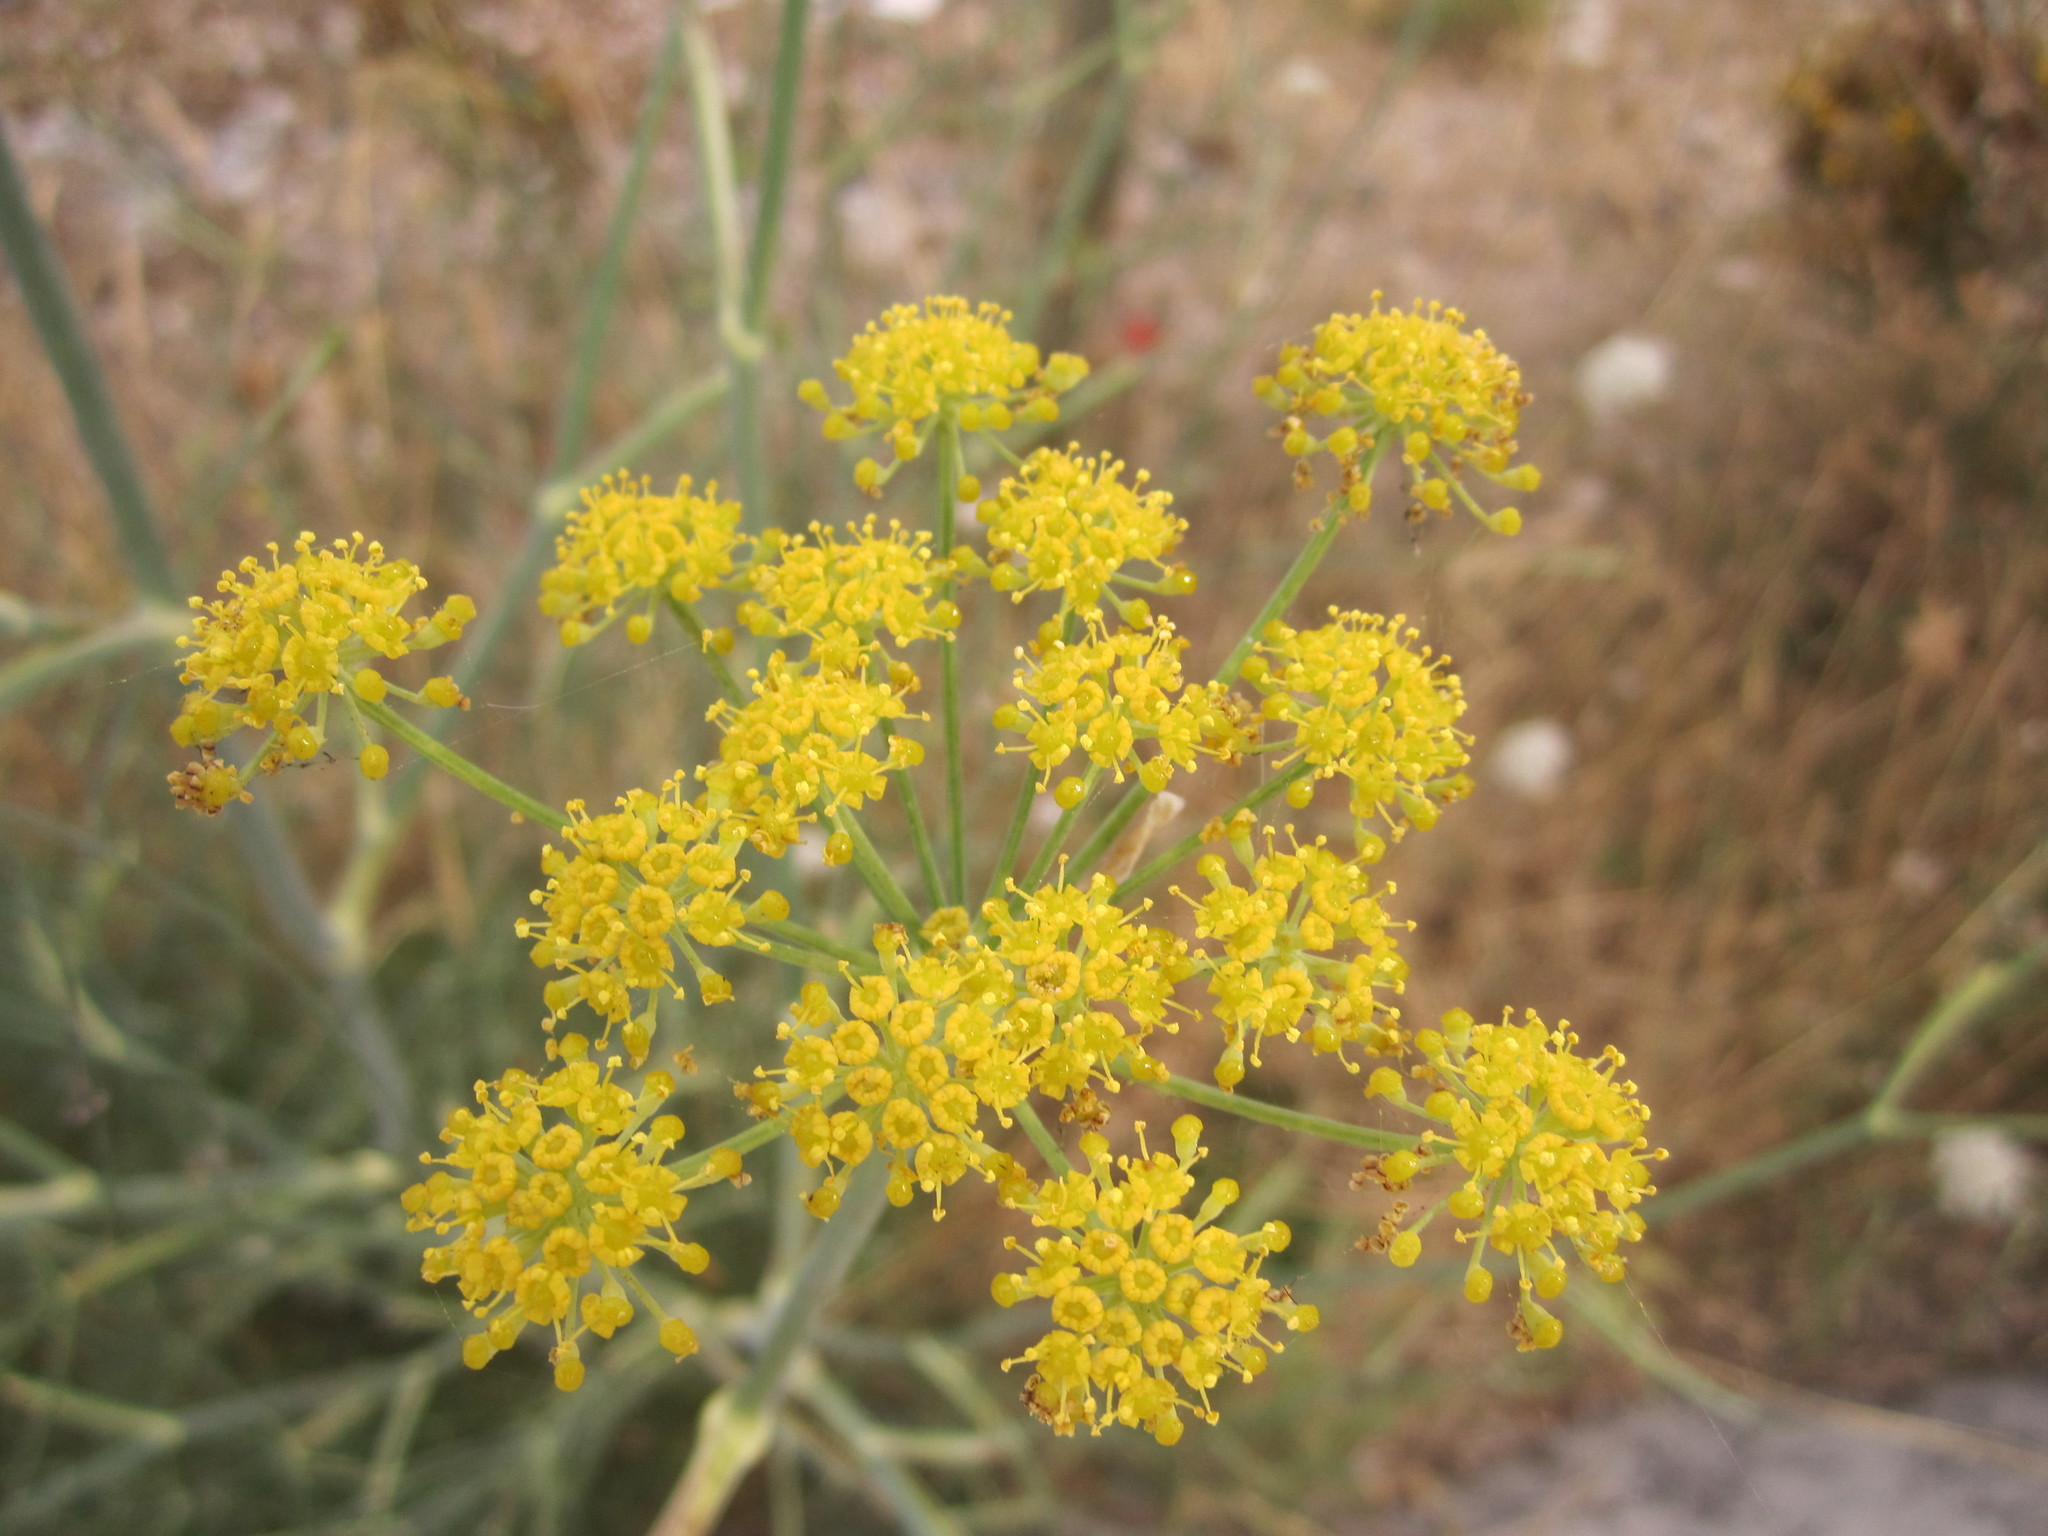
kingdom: Plantae
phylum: Tracheophyta
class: Magnoliopsida
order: Apiales
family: Apiaceae
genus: Foeniculum
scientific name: Foeniculum vulgare
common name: Fennel
